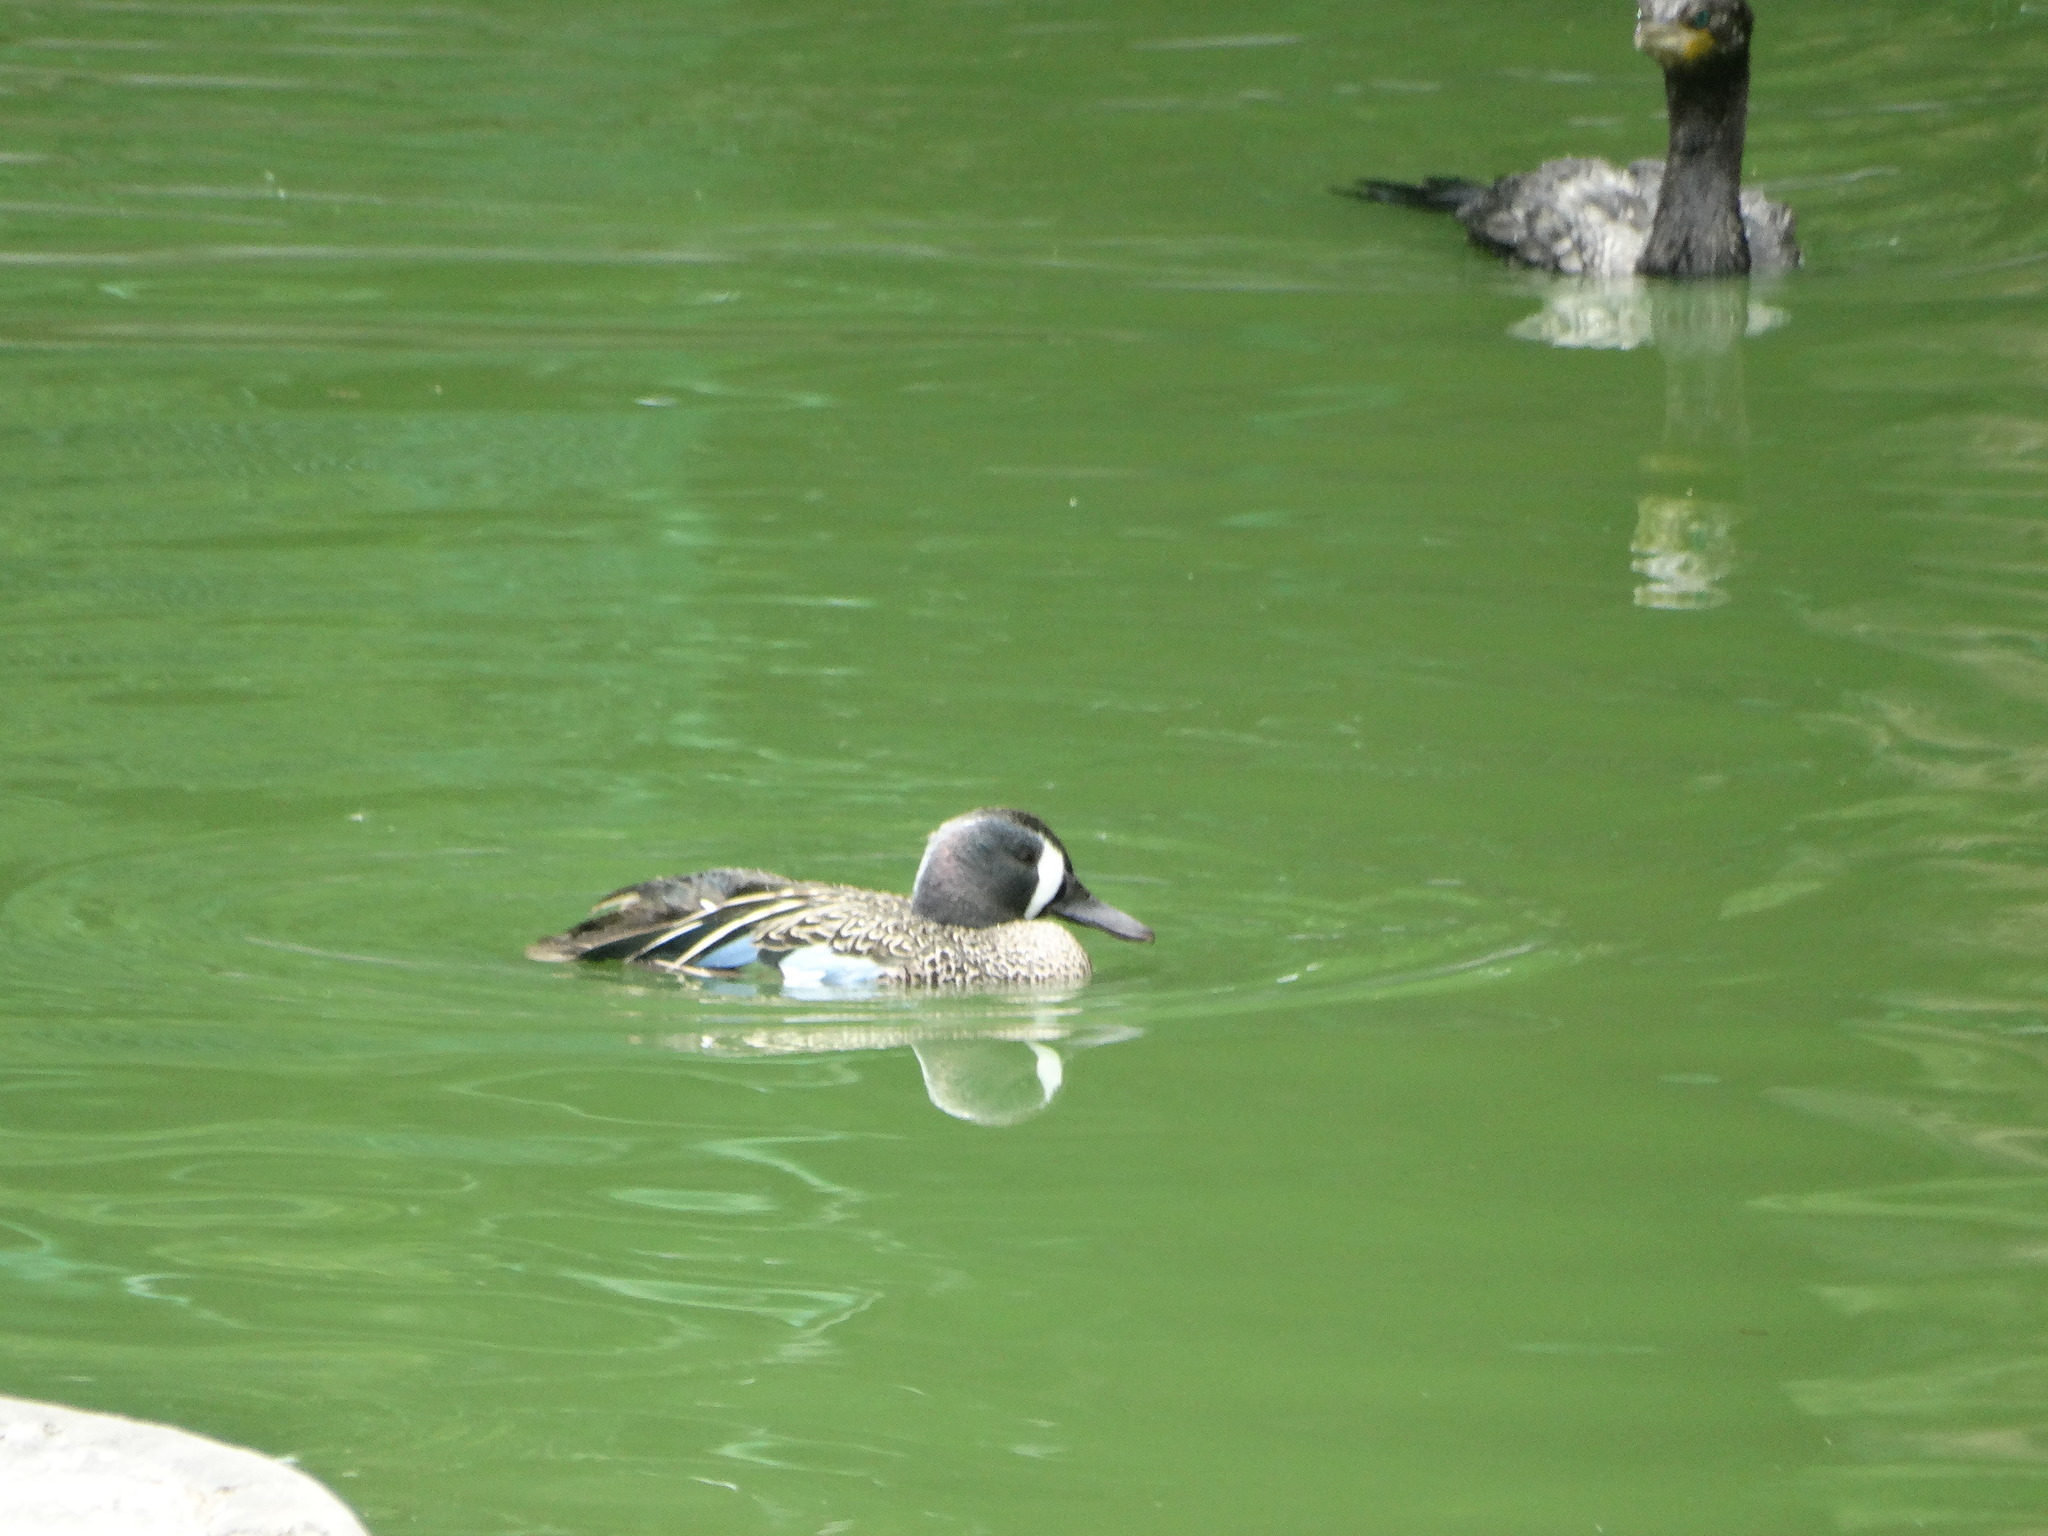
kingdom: Animalia
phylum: Chordata
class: Aves
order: Anseriformes
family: Anatidae
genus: Spatula
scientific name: Spatula discors
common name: Blue-winged teal
